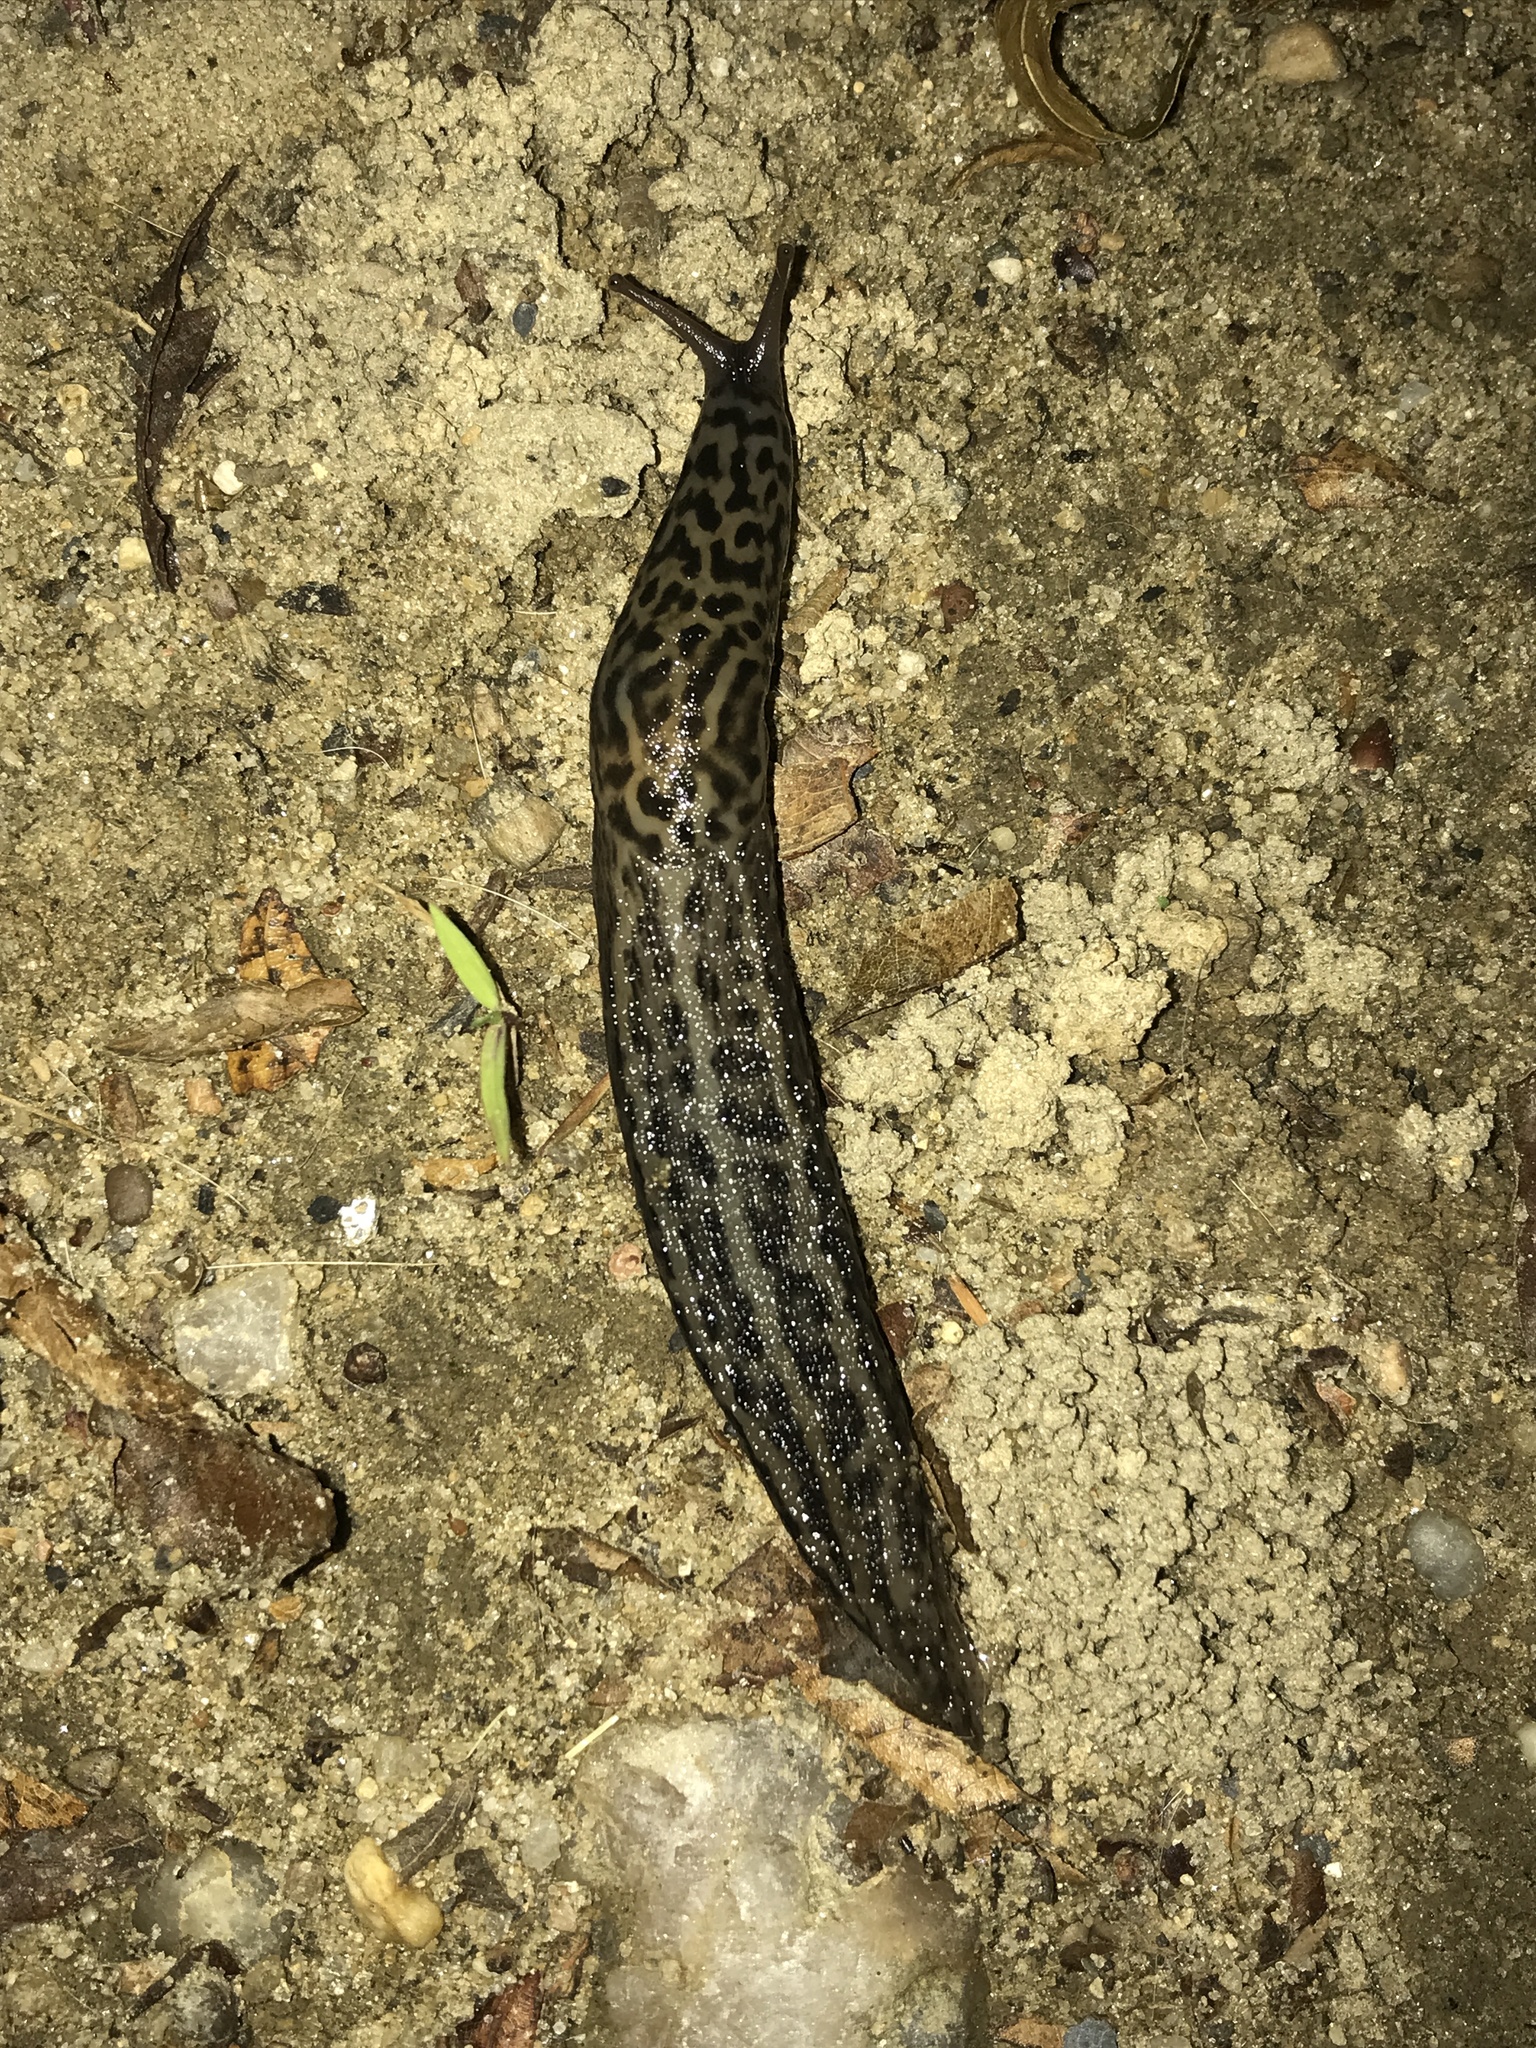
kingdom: Animalia
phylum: Mollusca
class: Gastropoda
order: Stylommatophora
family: Limacidae
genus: Limax
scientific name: Limax maximus
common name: Great grey slug
